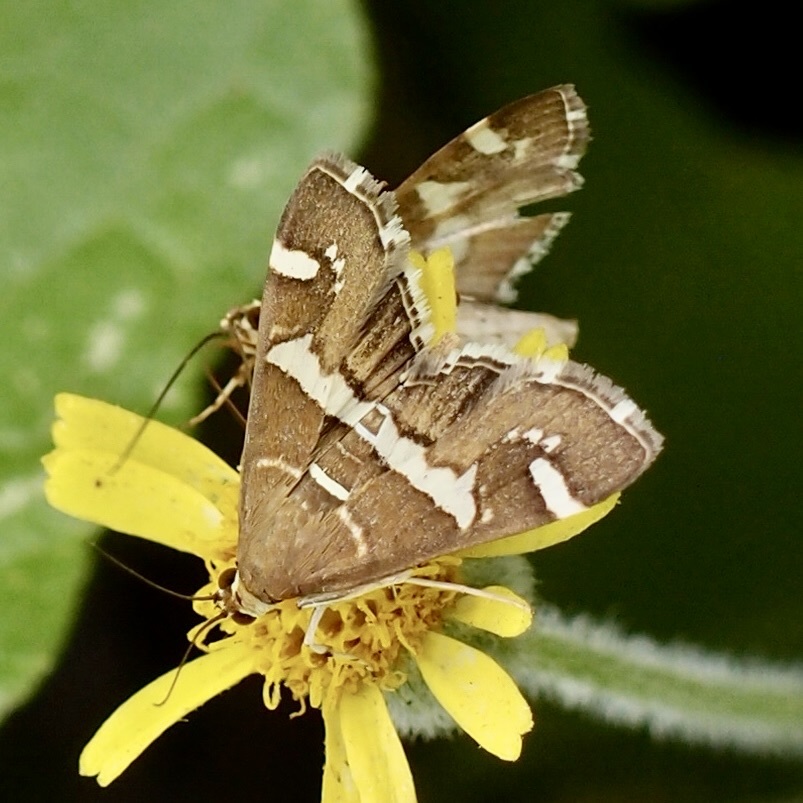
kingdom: Animalia
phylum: Arthropoda
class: Insecta
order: Lepidoptera
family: Crambidae
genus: Spoladea
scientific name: Spoladea recurvalis
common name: Beet webworm moth
